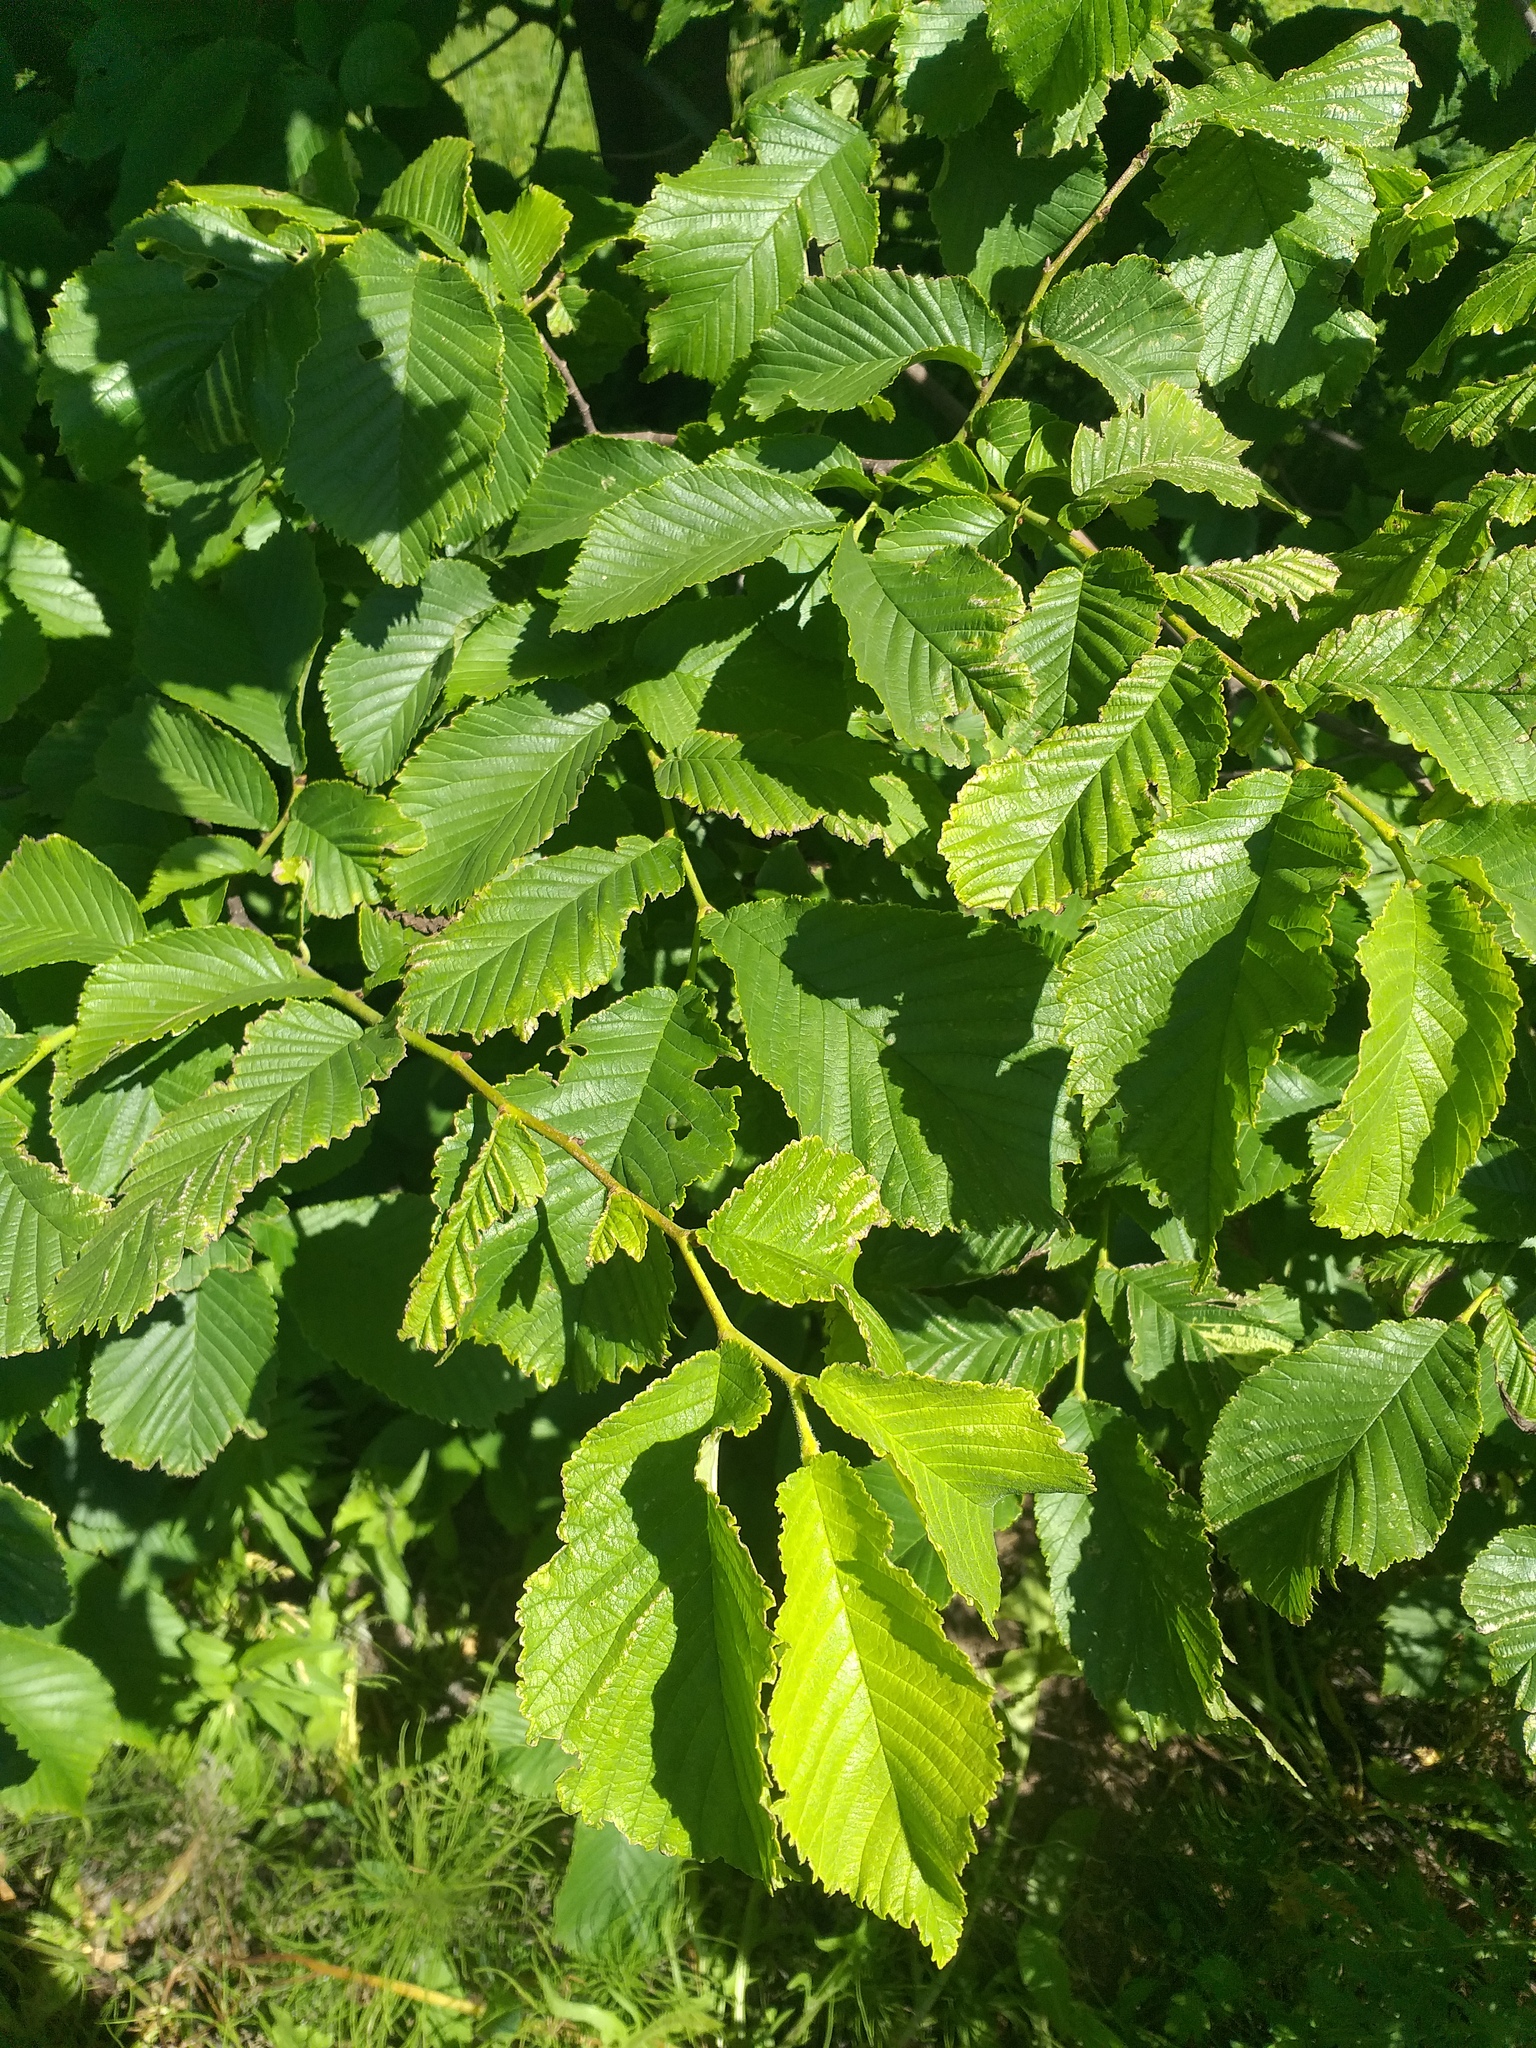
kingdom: Plantae
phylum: Tracheophyta
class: Magnoliopsida
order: Rosales
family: Ulmaceae
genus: Ulmus
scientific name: Ulmus glabra
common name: Wych elm
